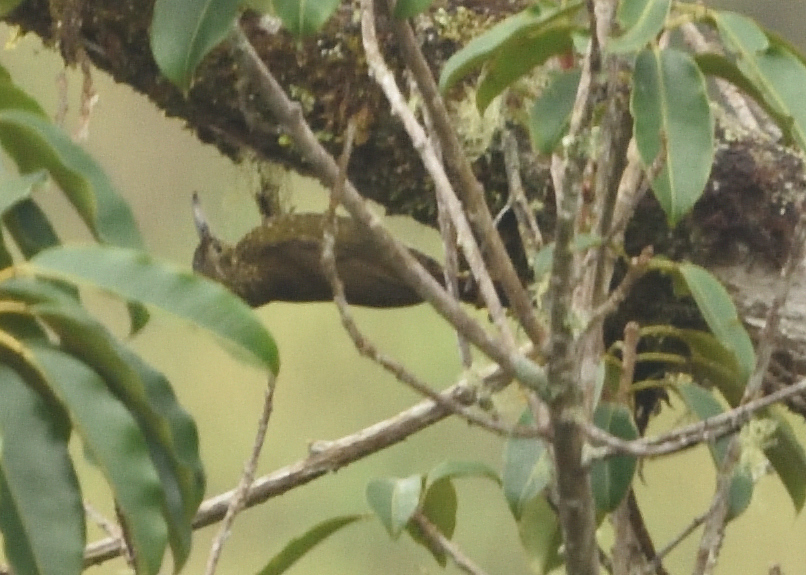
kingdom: Animalia
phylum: Chordata
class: Aves
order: Passeriformes
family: Furnariidae
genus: Xiphorhynchus
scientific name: Xiphorhynchus triangularis
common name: Olive-backed woodcreeper
